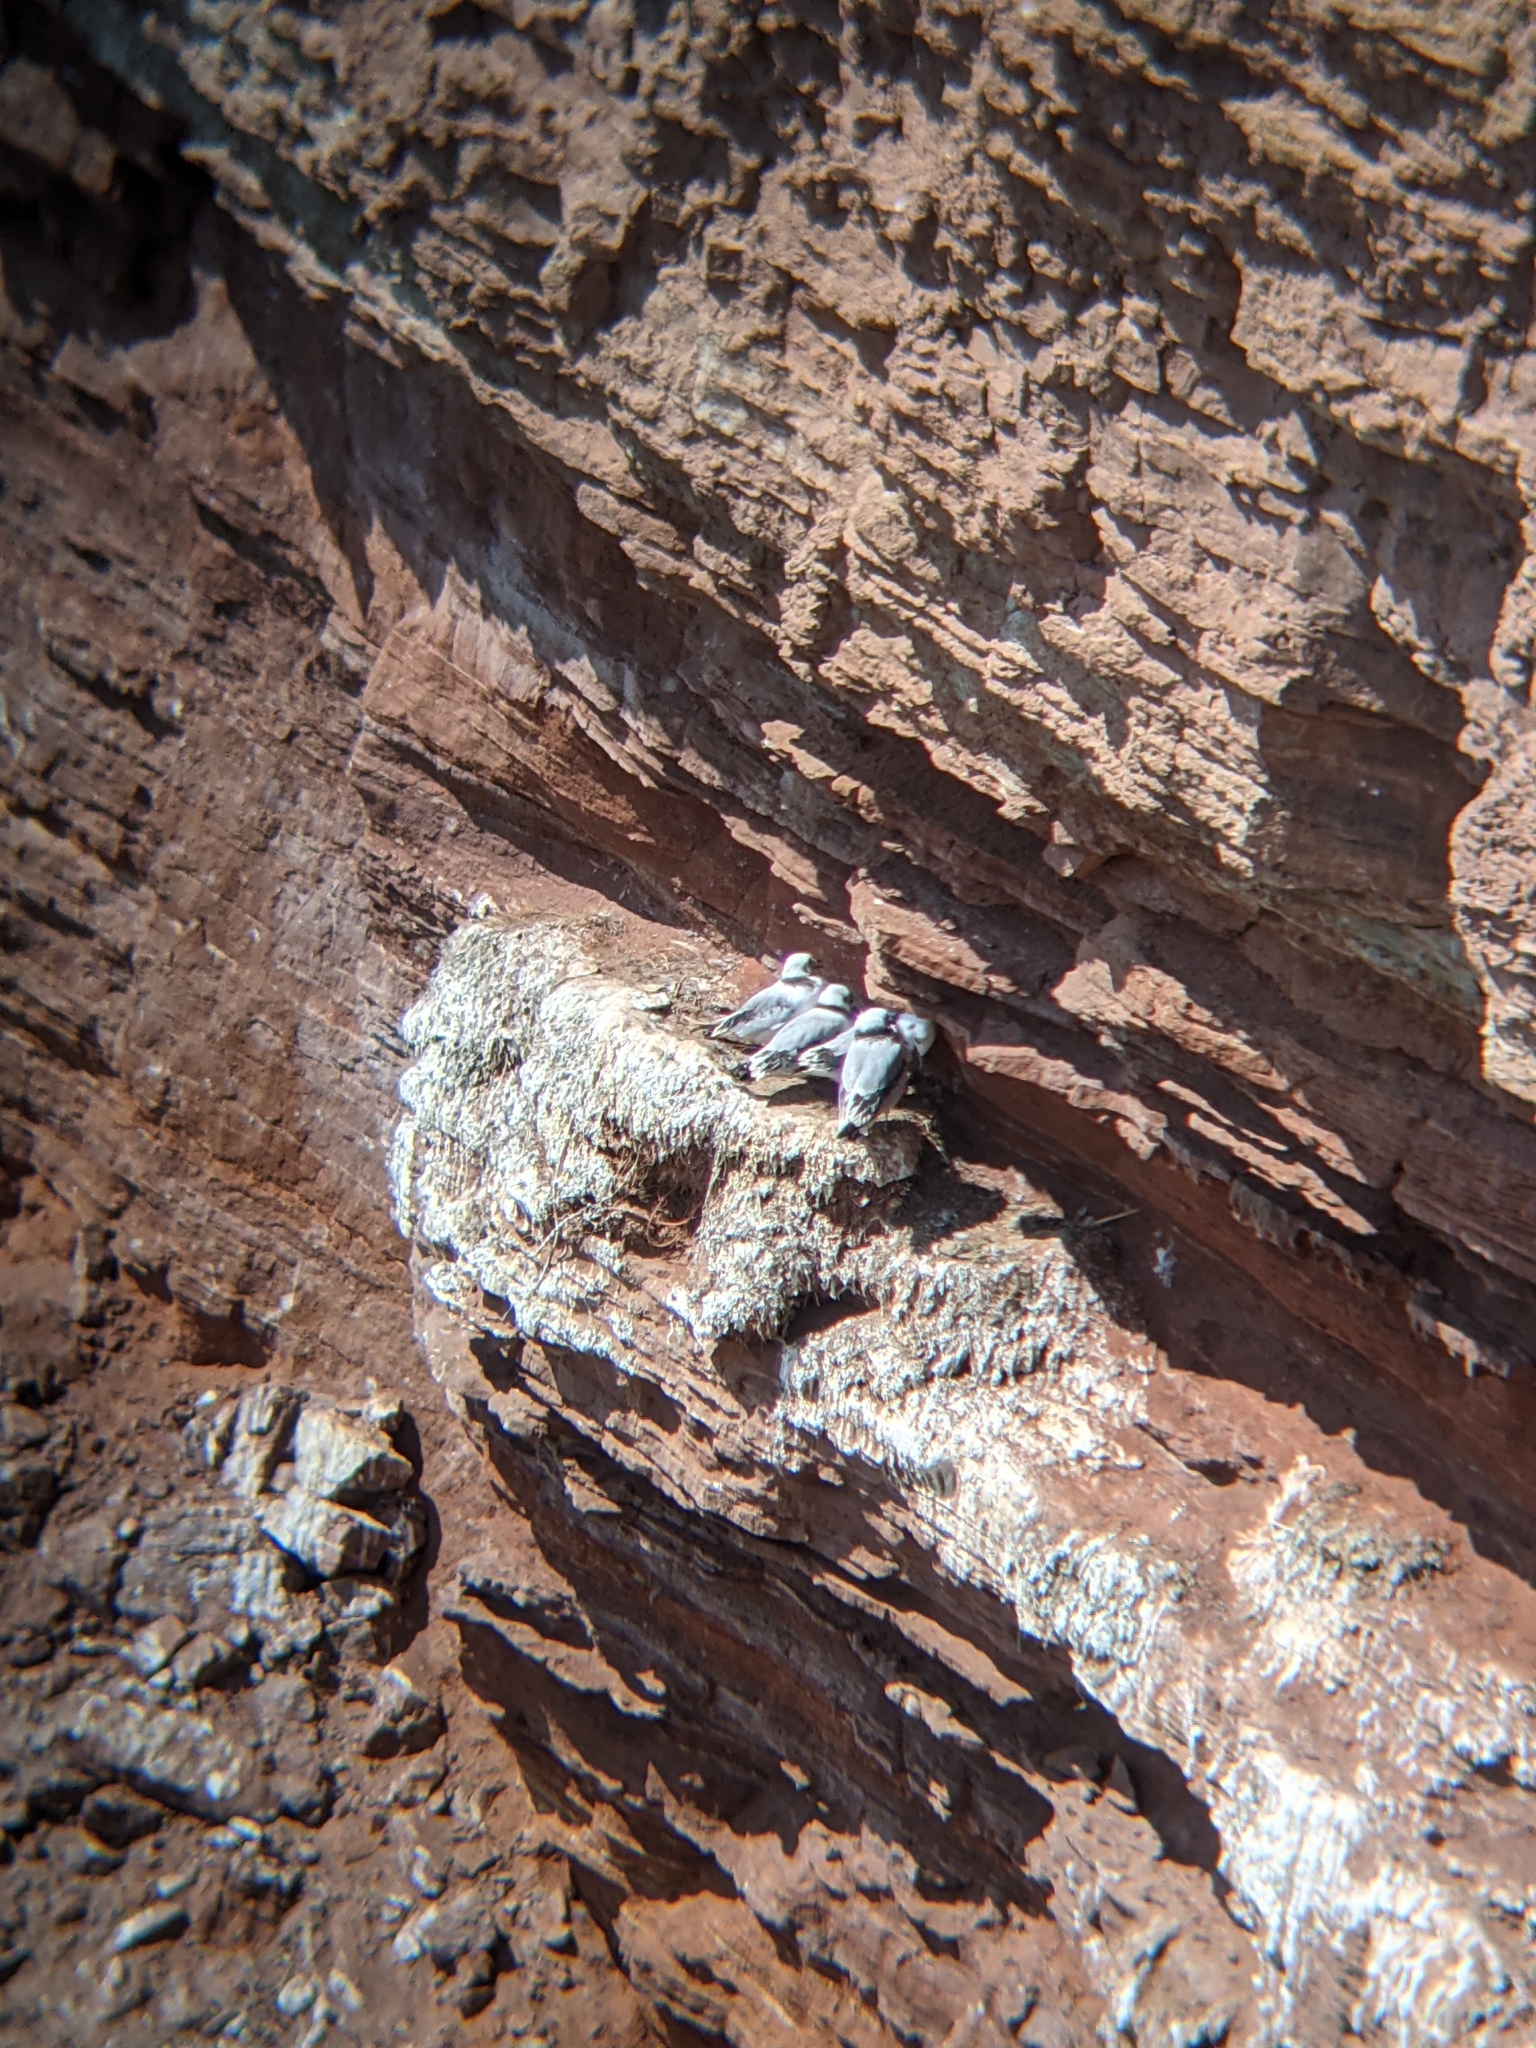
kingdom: Animalia
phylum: Chordata
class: Aves
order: Charadriiformes
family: Laridae
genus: Rissa
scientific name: Rissa tridactyla
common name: Black-legged kittiwake
